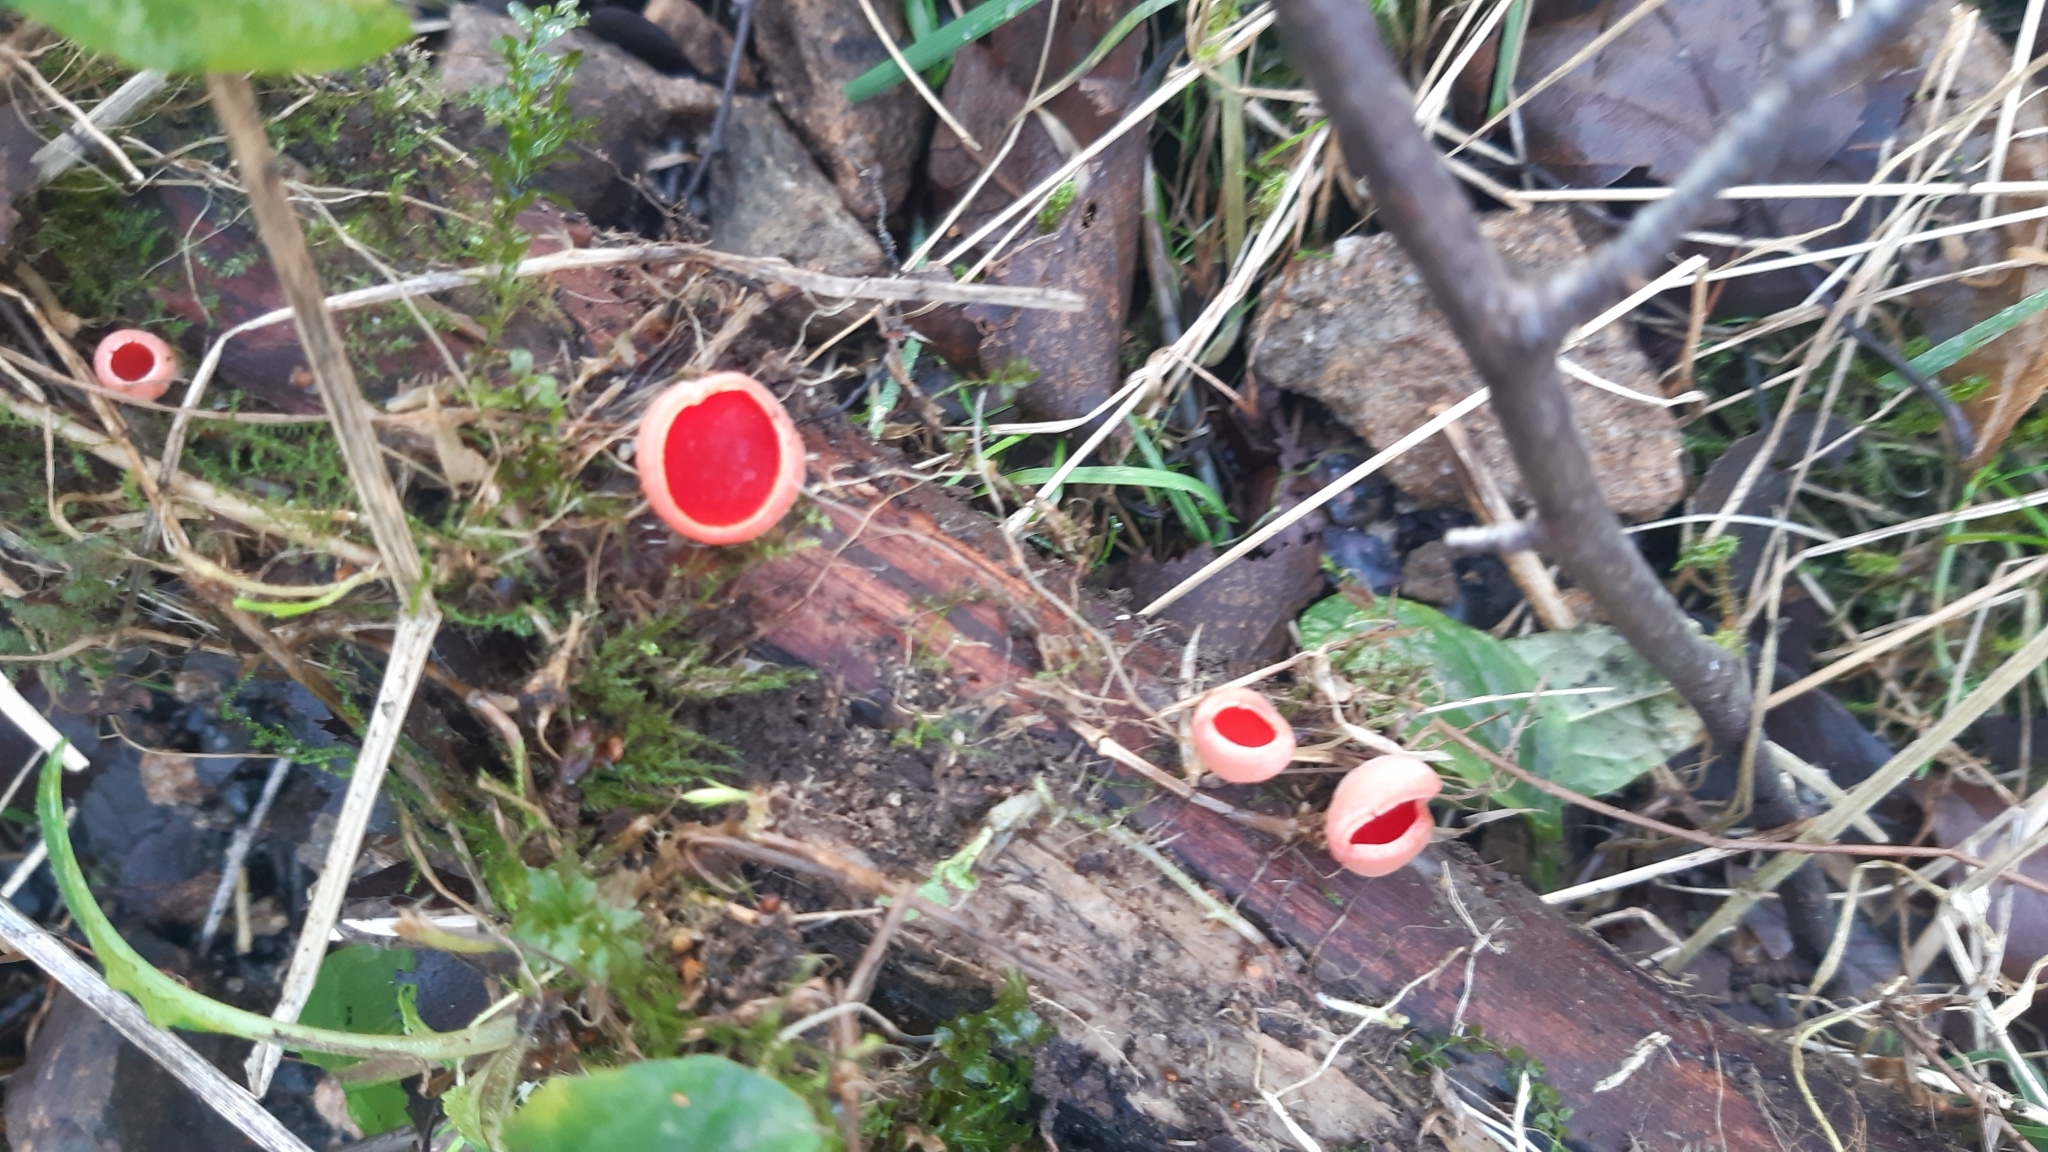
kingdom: Fungi
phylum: Ascomycota
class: Pezizomycetes
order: Pezizales
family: Sarcoscyphaceae
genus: Sarcoscypha
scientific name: Sarcoscypha
